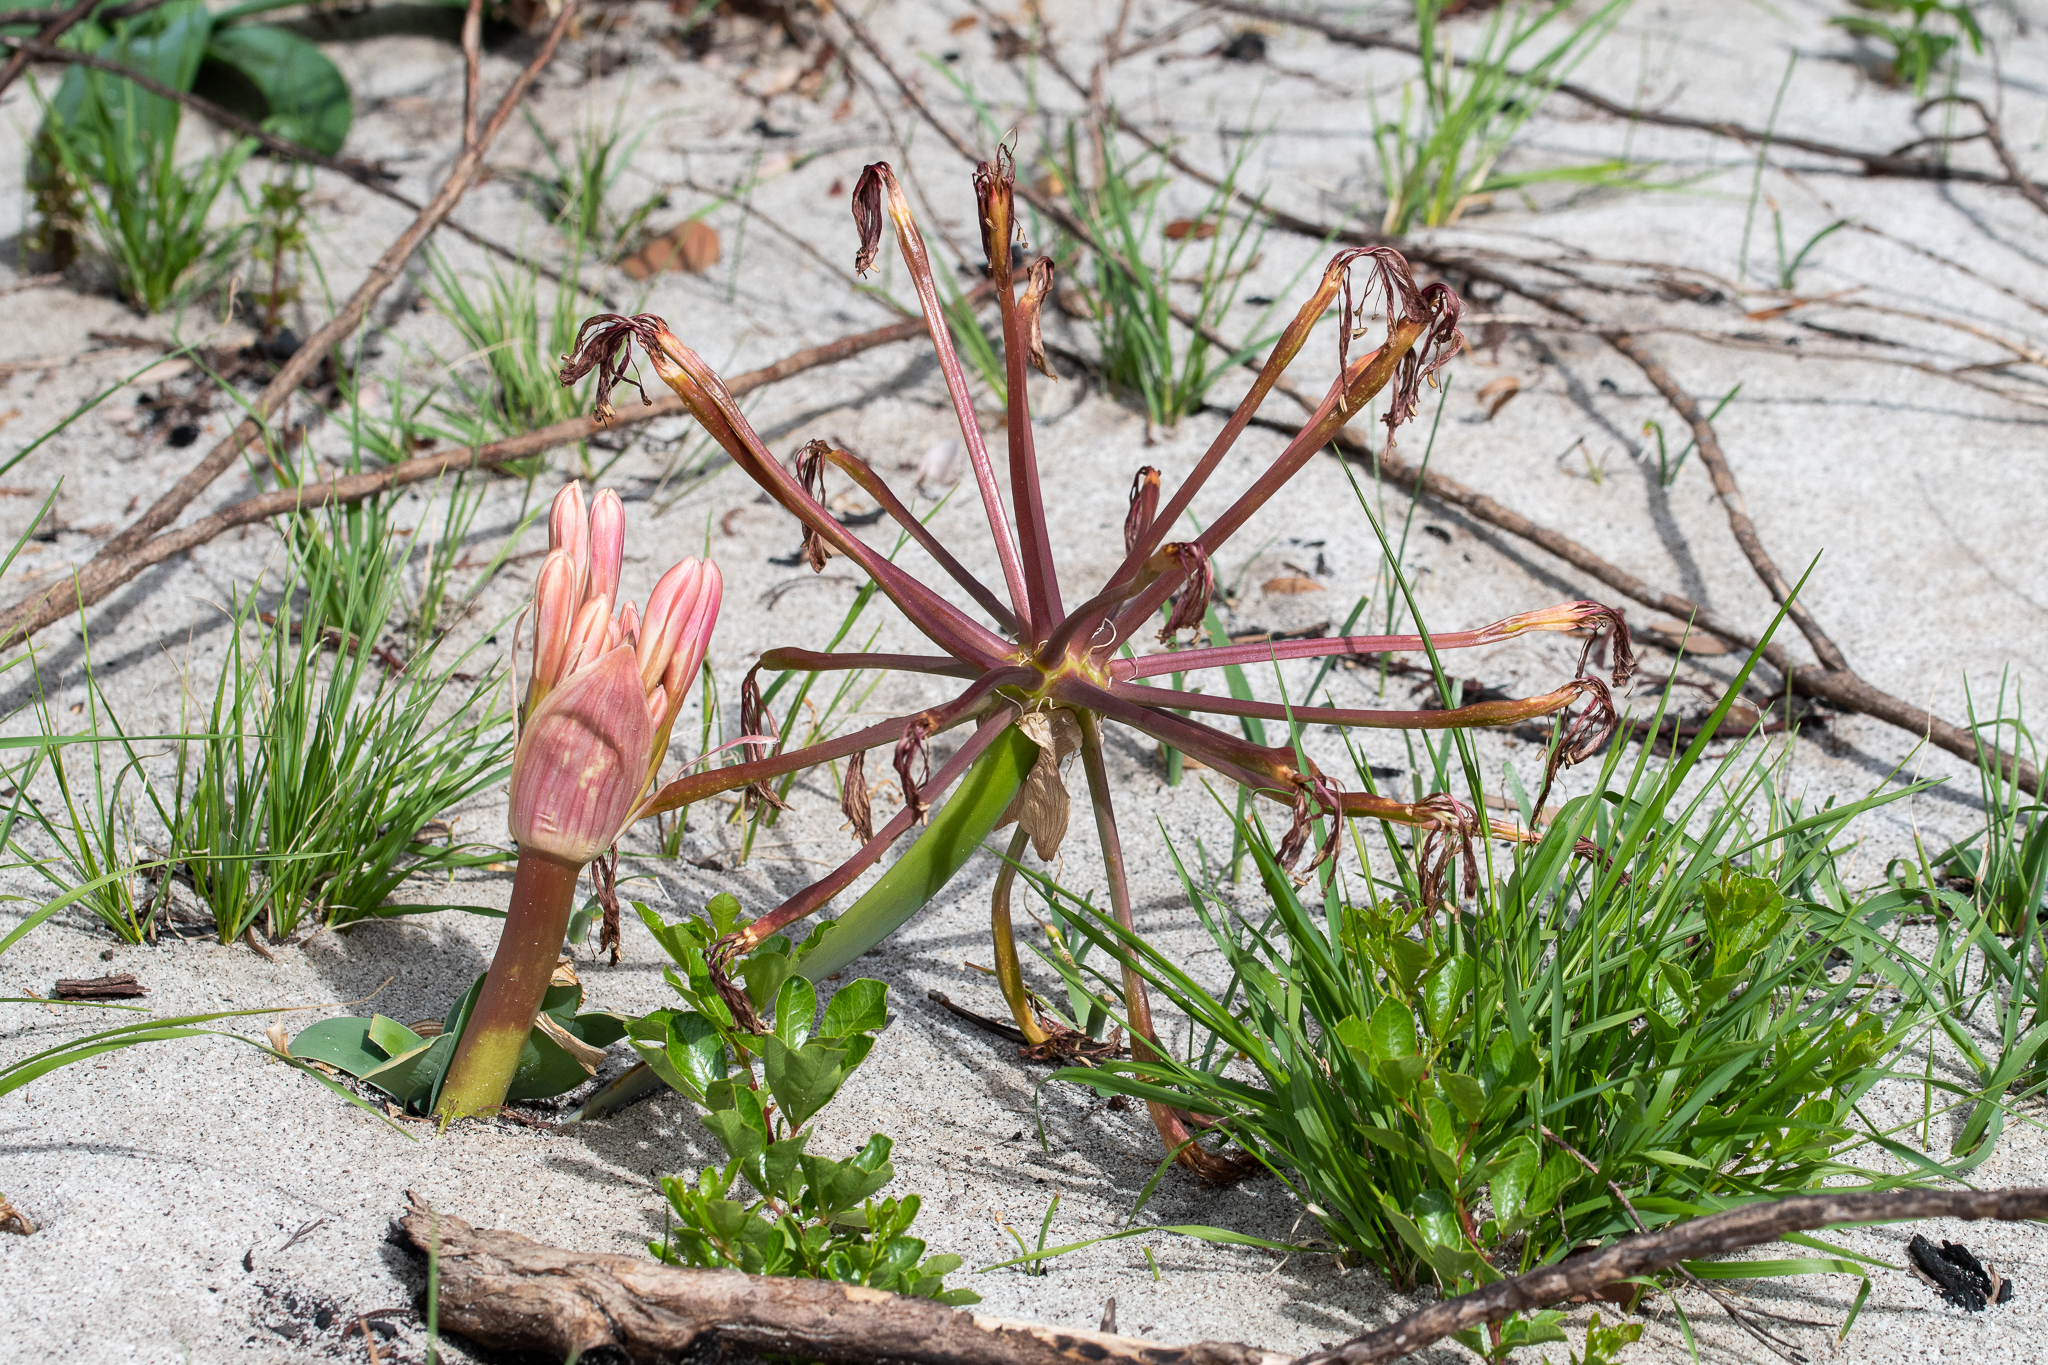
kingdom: Plantae
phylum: Tracheophyta
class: Liliopsida
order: Asparagales
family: Amaryllidaceae
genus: Ammocharis
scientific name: Ammocharis longifolia
